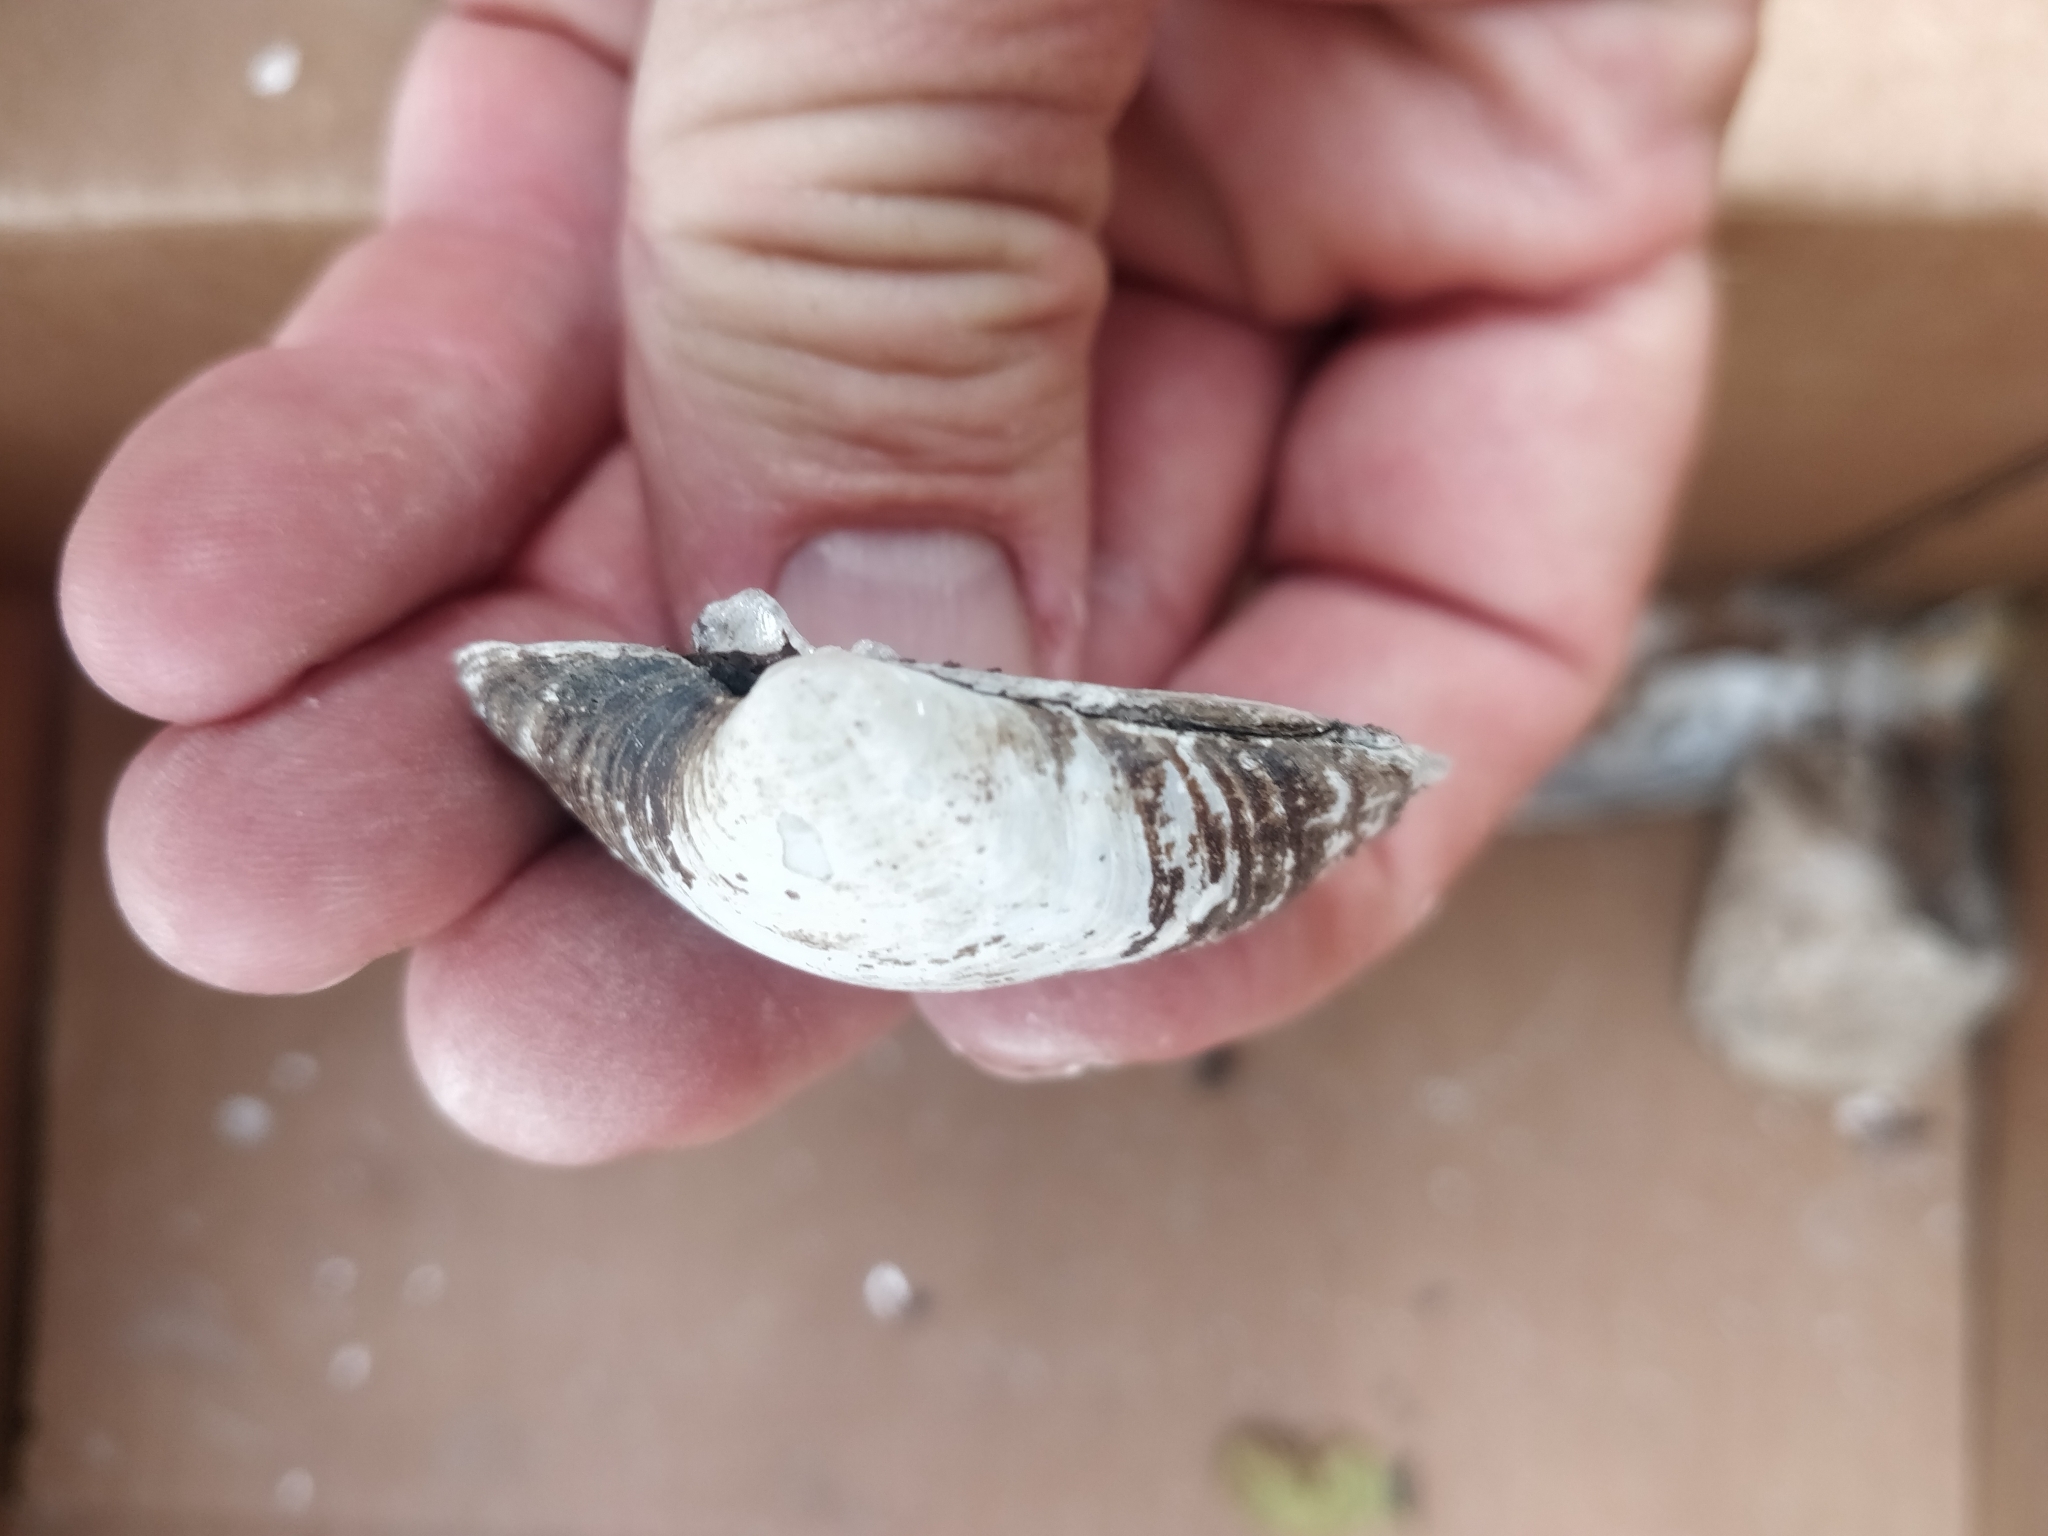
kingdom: Animalia
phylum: Mollusca
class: Bivalvia
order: Unionida
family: Unionidae
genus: Cyclonaias
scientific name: Cyclonaias pustulosa
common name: Pimpleback
